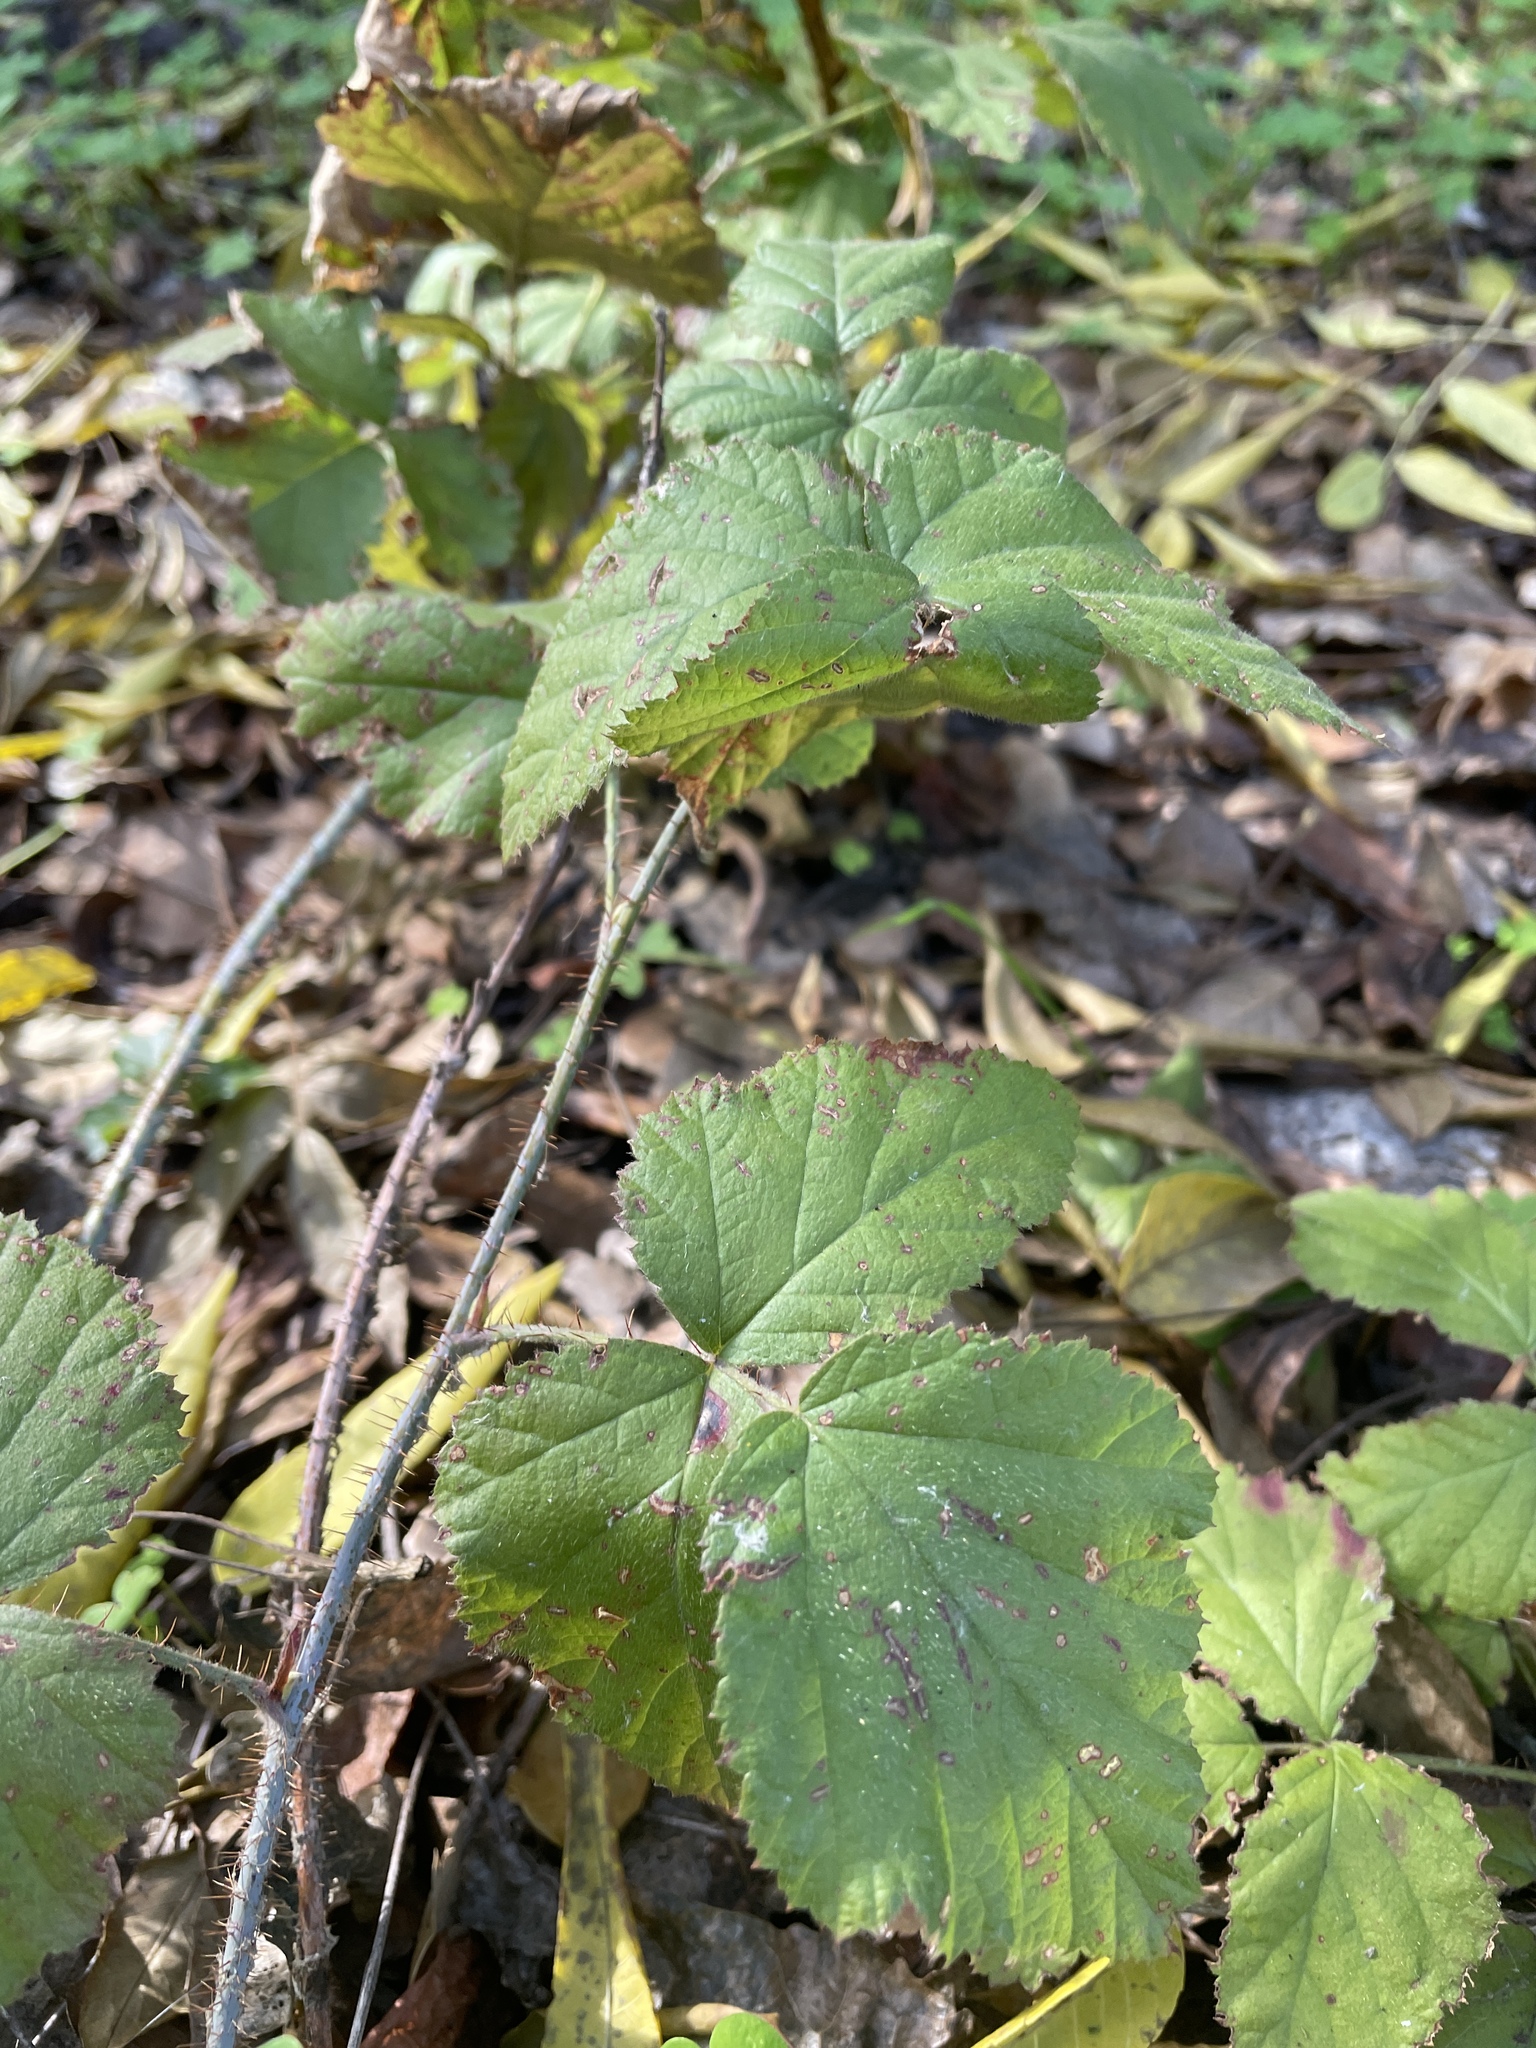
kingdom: Plantae
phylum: Tracheophyta
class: Magnoliopsida
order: Rosales
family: Rosaceae
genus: Rubus
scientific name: Rubus ursinus
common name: Pacific blackberry
